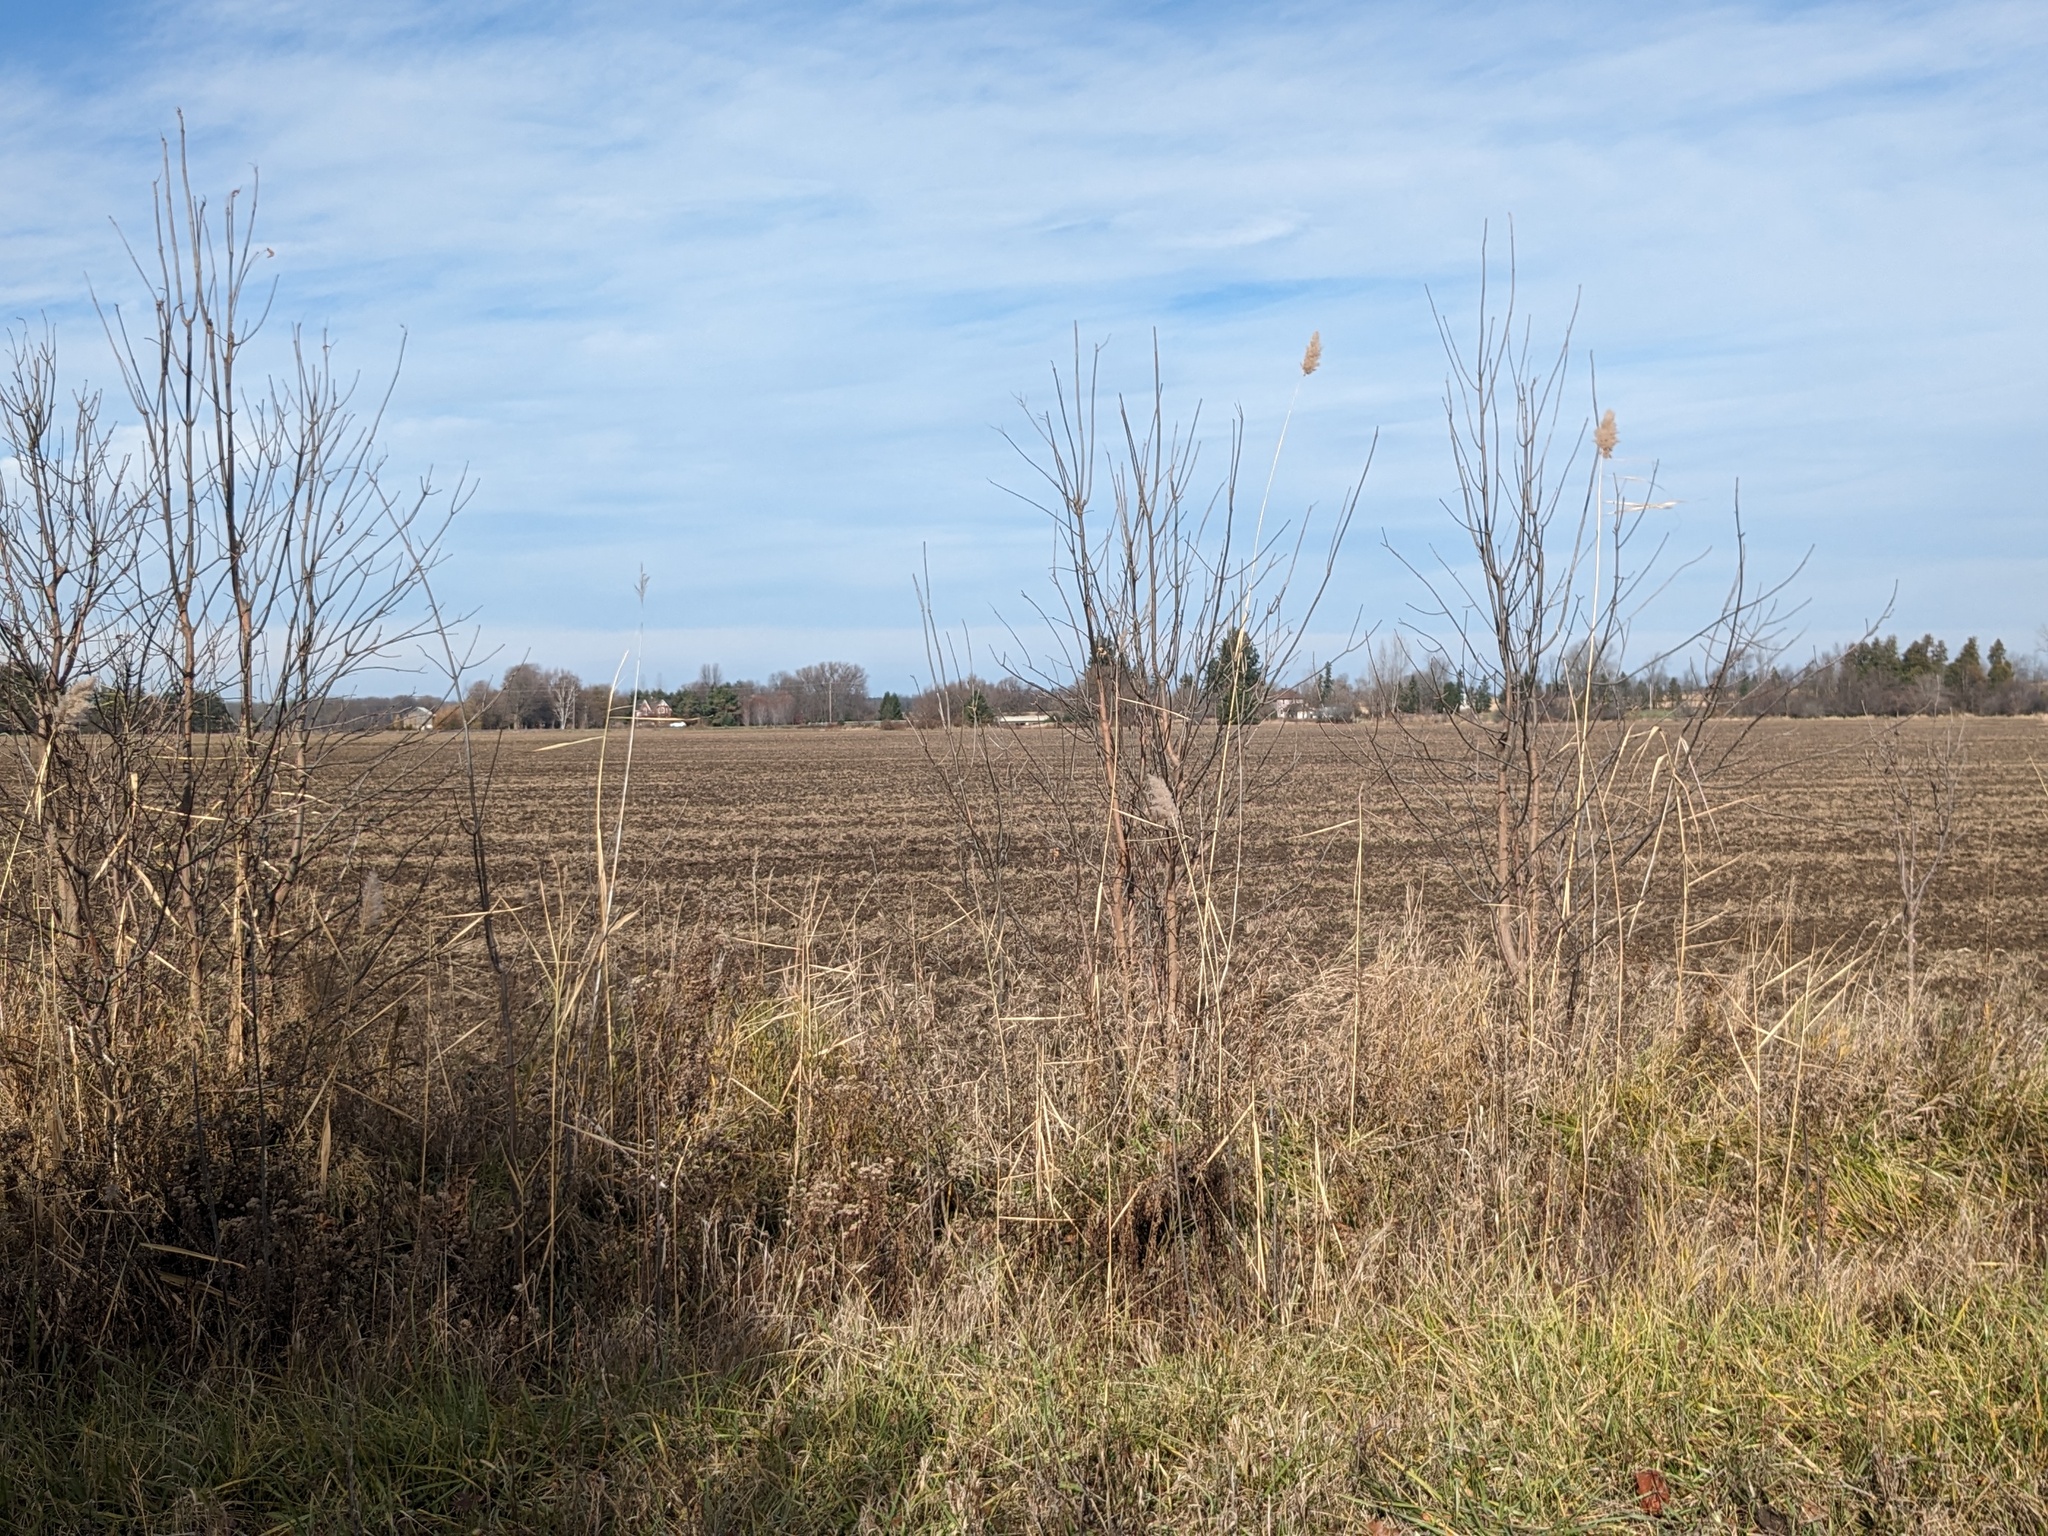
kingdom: Plantae
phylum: Tracheophyta
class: Liliopsida
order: Poales
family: Poaceae
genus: Phragmites
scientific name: Phragmites australis
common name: Common reed
